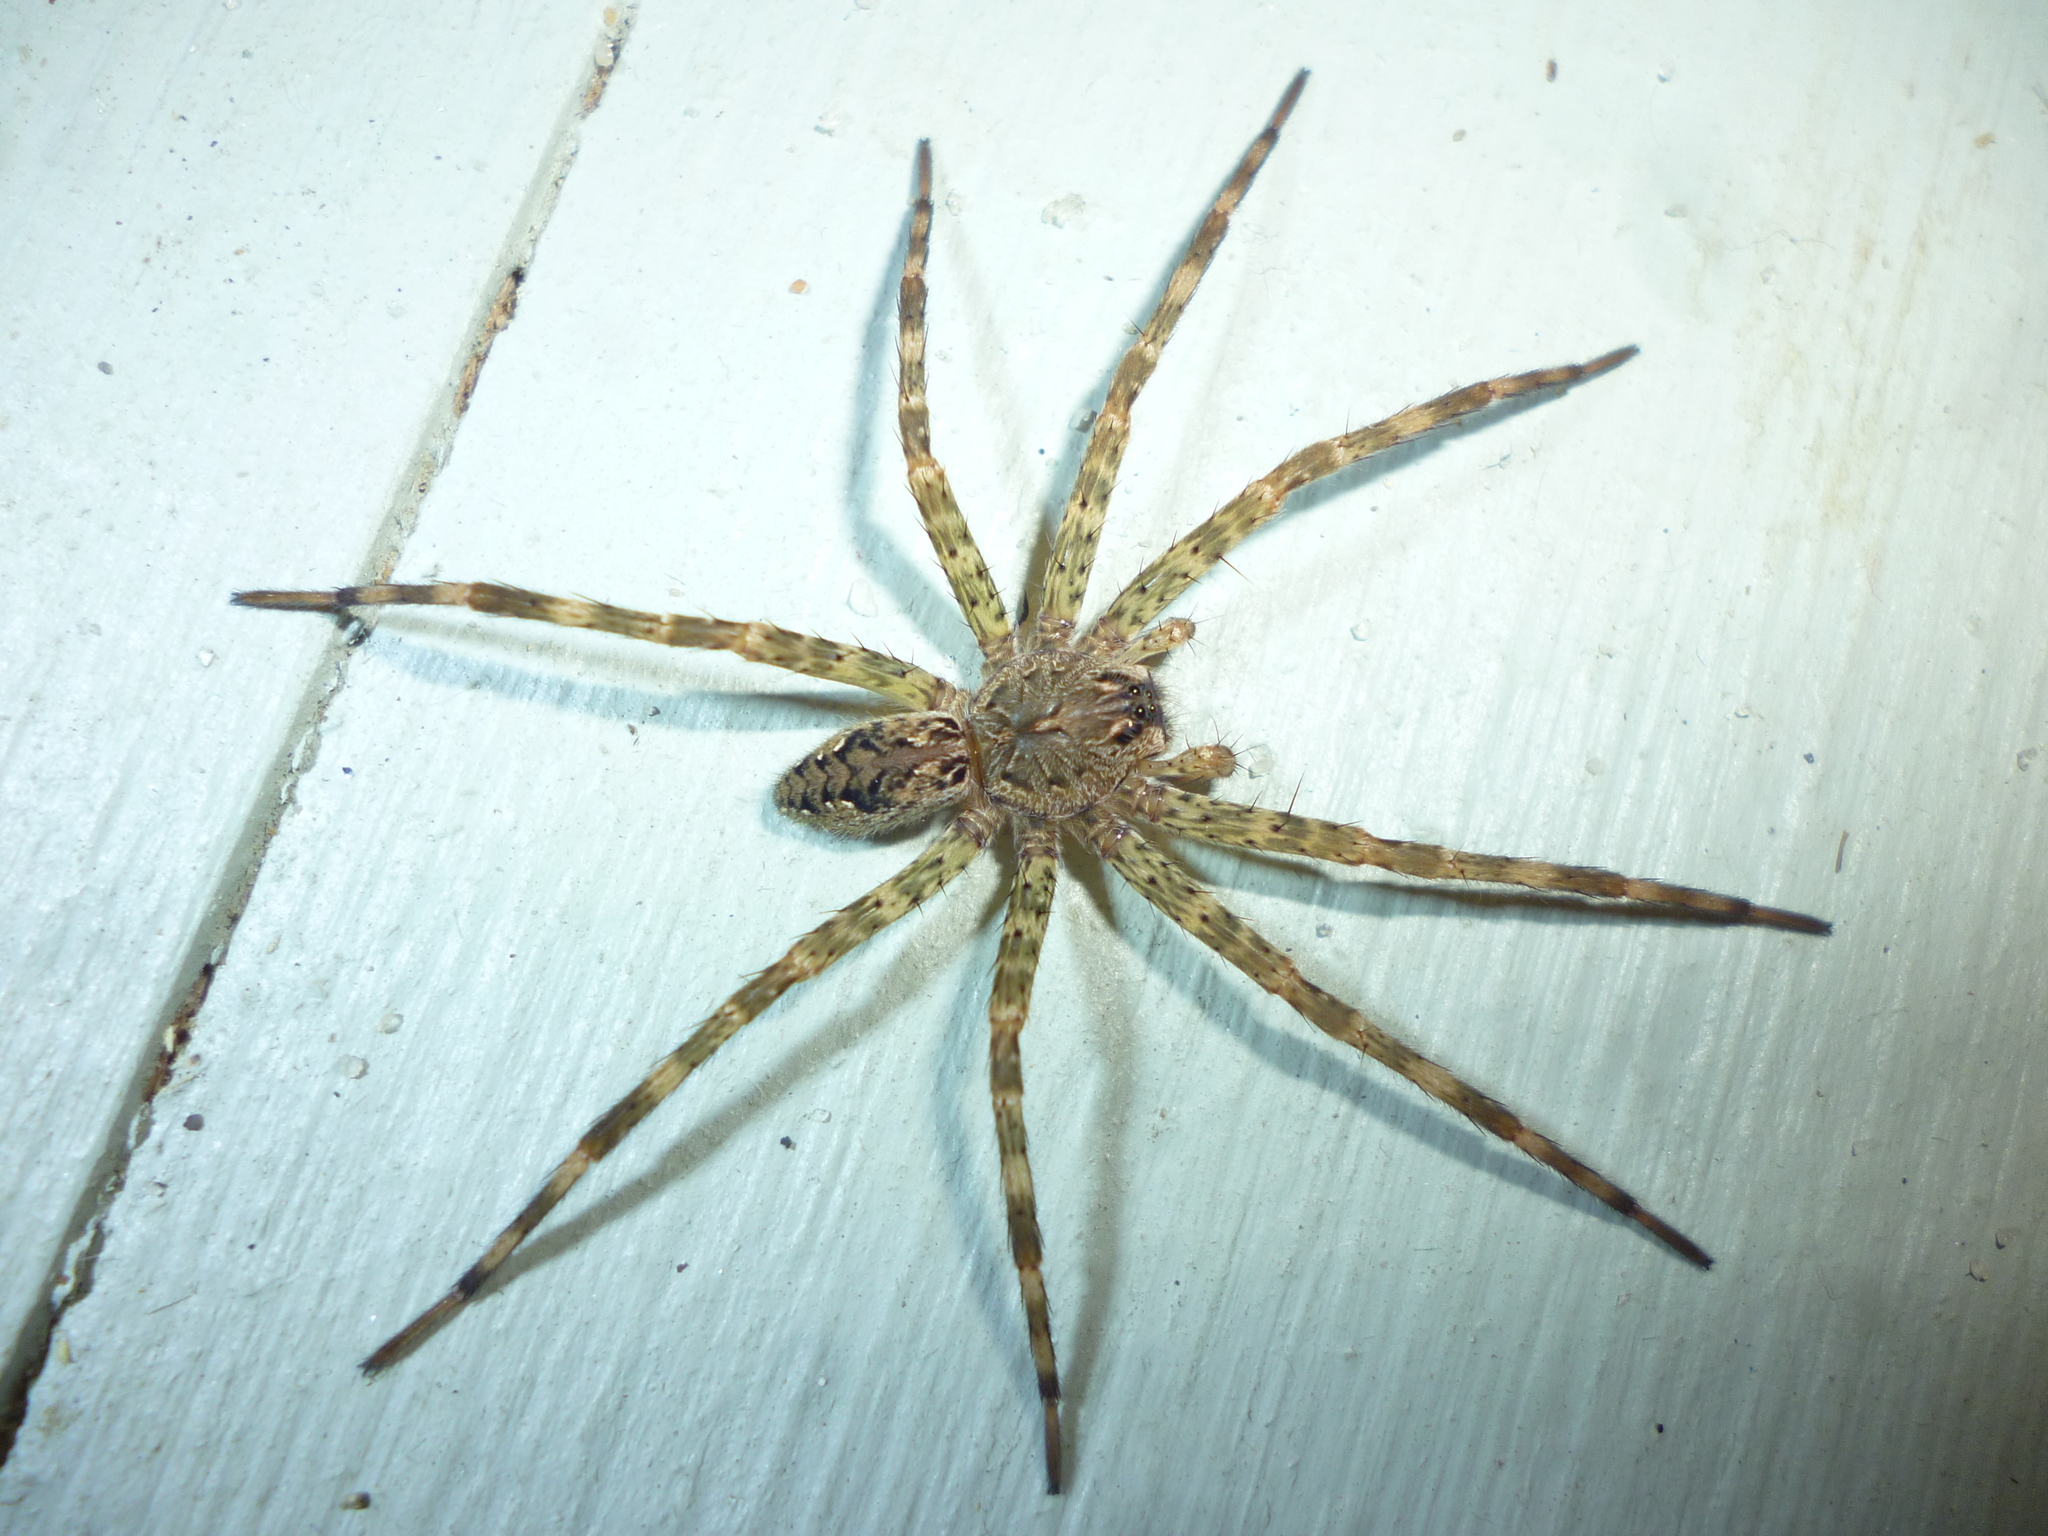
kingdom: Animalia
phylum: Arthropoda
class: Arachnida
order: Araneae
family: Pisauridae
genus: Dolomedes
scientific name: Dolomedes tenebrosus
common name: Dark fishing spider
